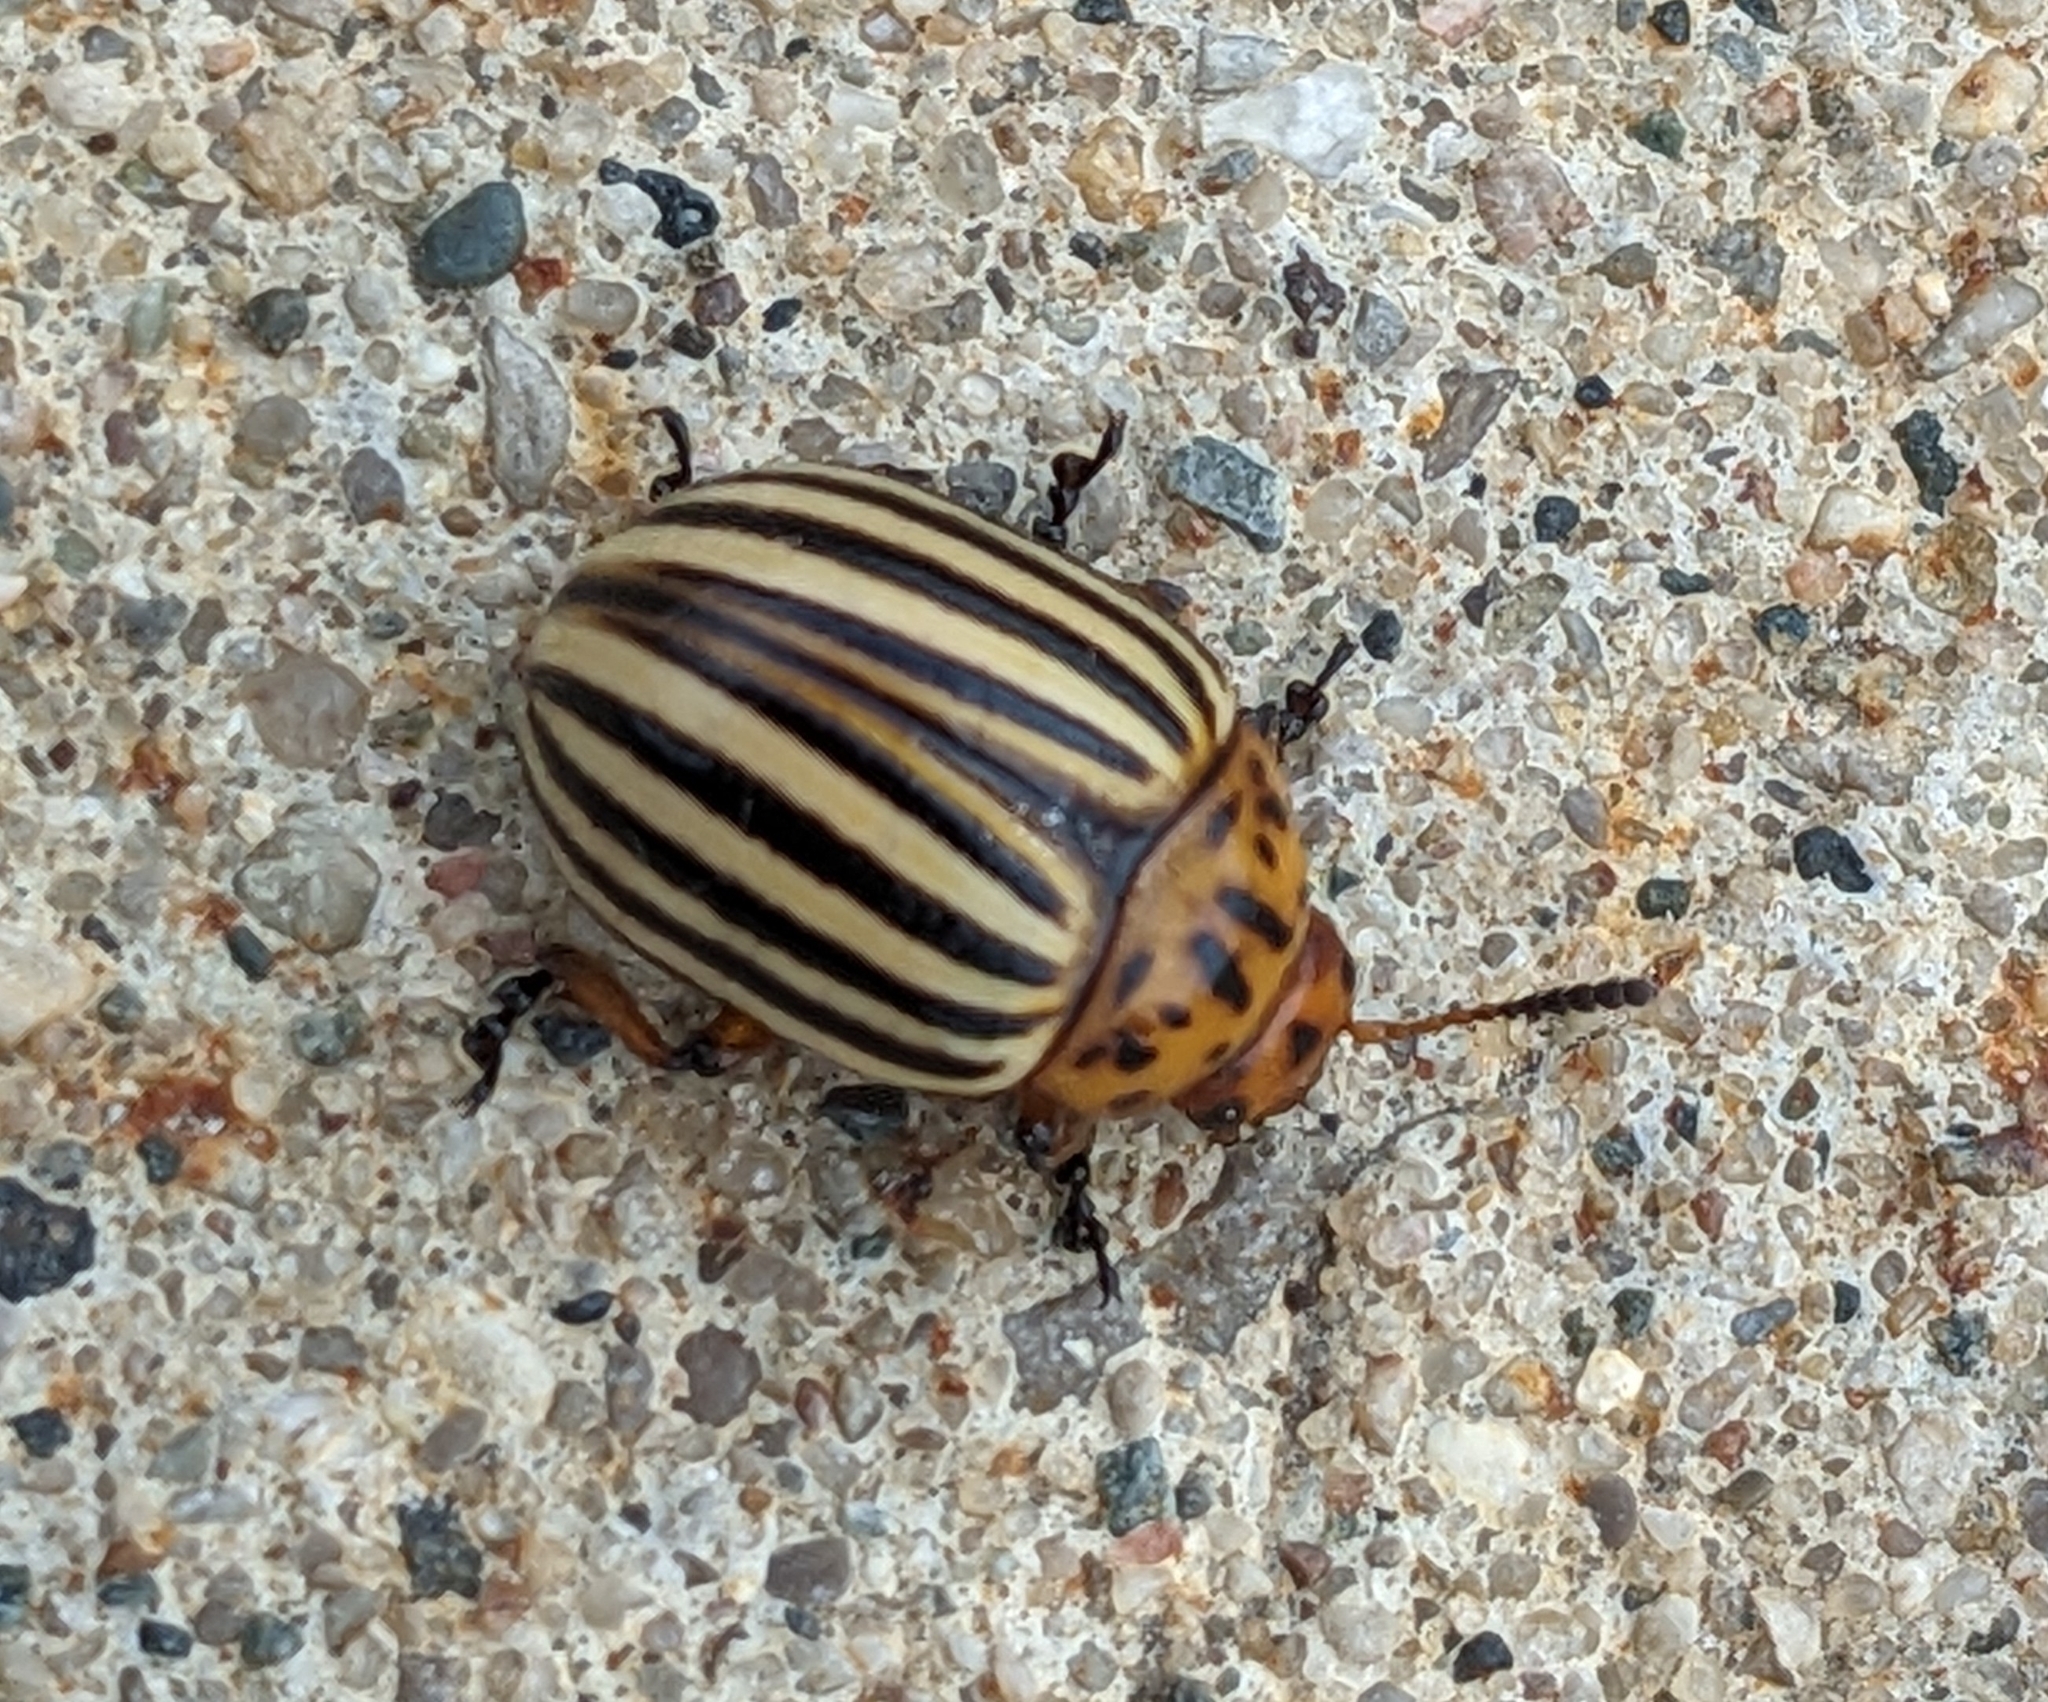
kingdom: Animalia
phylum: Arthropoda
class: Insecta
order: Coleoptera
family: Chrysomelidae
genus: Leptinotarsa
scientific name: Leptinotarsa decemlineata
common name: Colorado potato beetle
